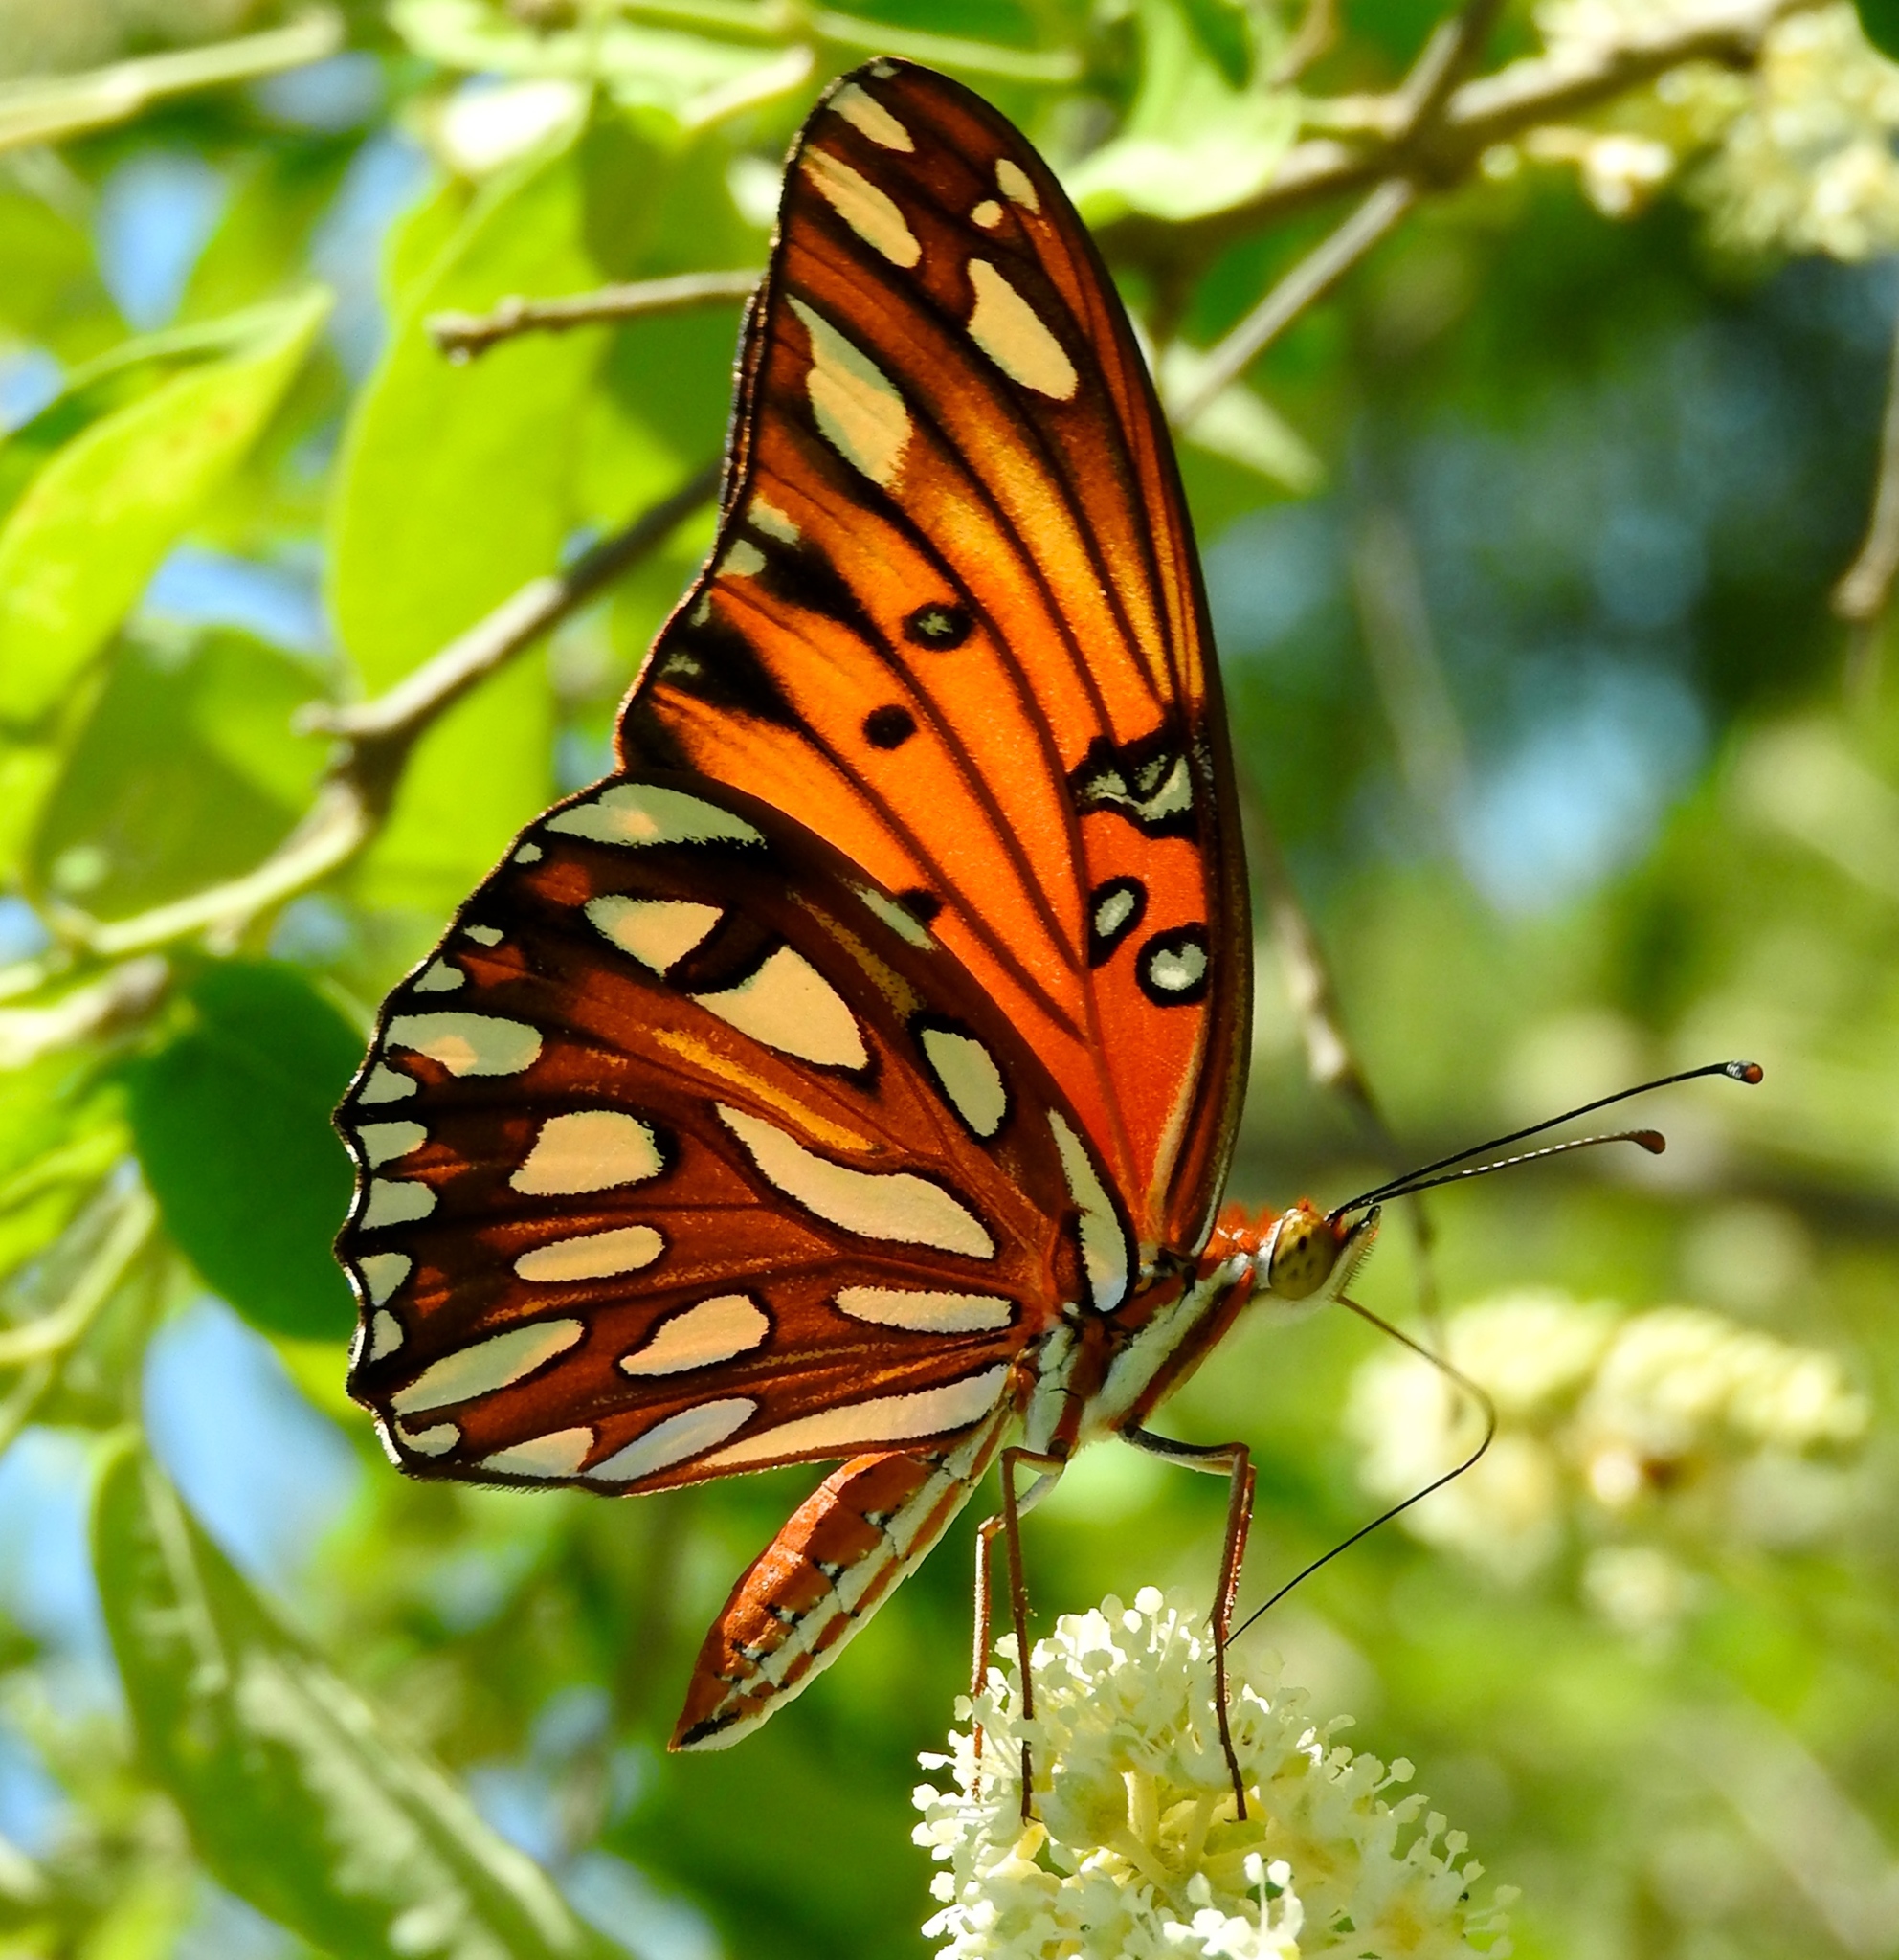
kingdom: Animalia
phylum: Arthropoda
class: Insecta
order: Lepidoptera
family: Nymphalidae
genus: Dione
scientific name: Dione vanillae
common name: Gulf fritillary
